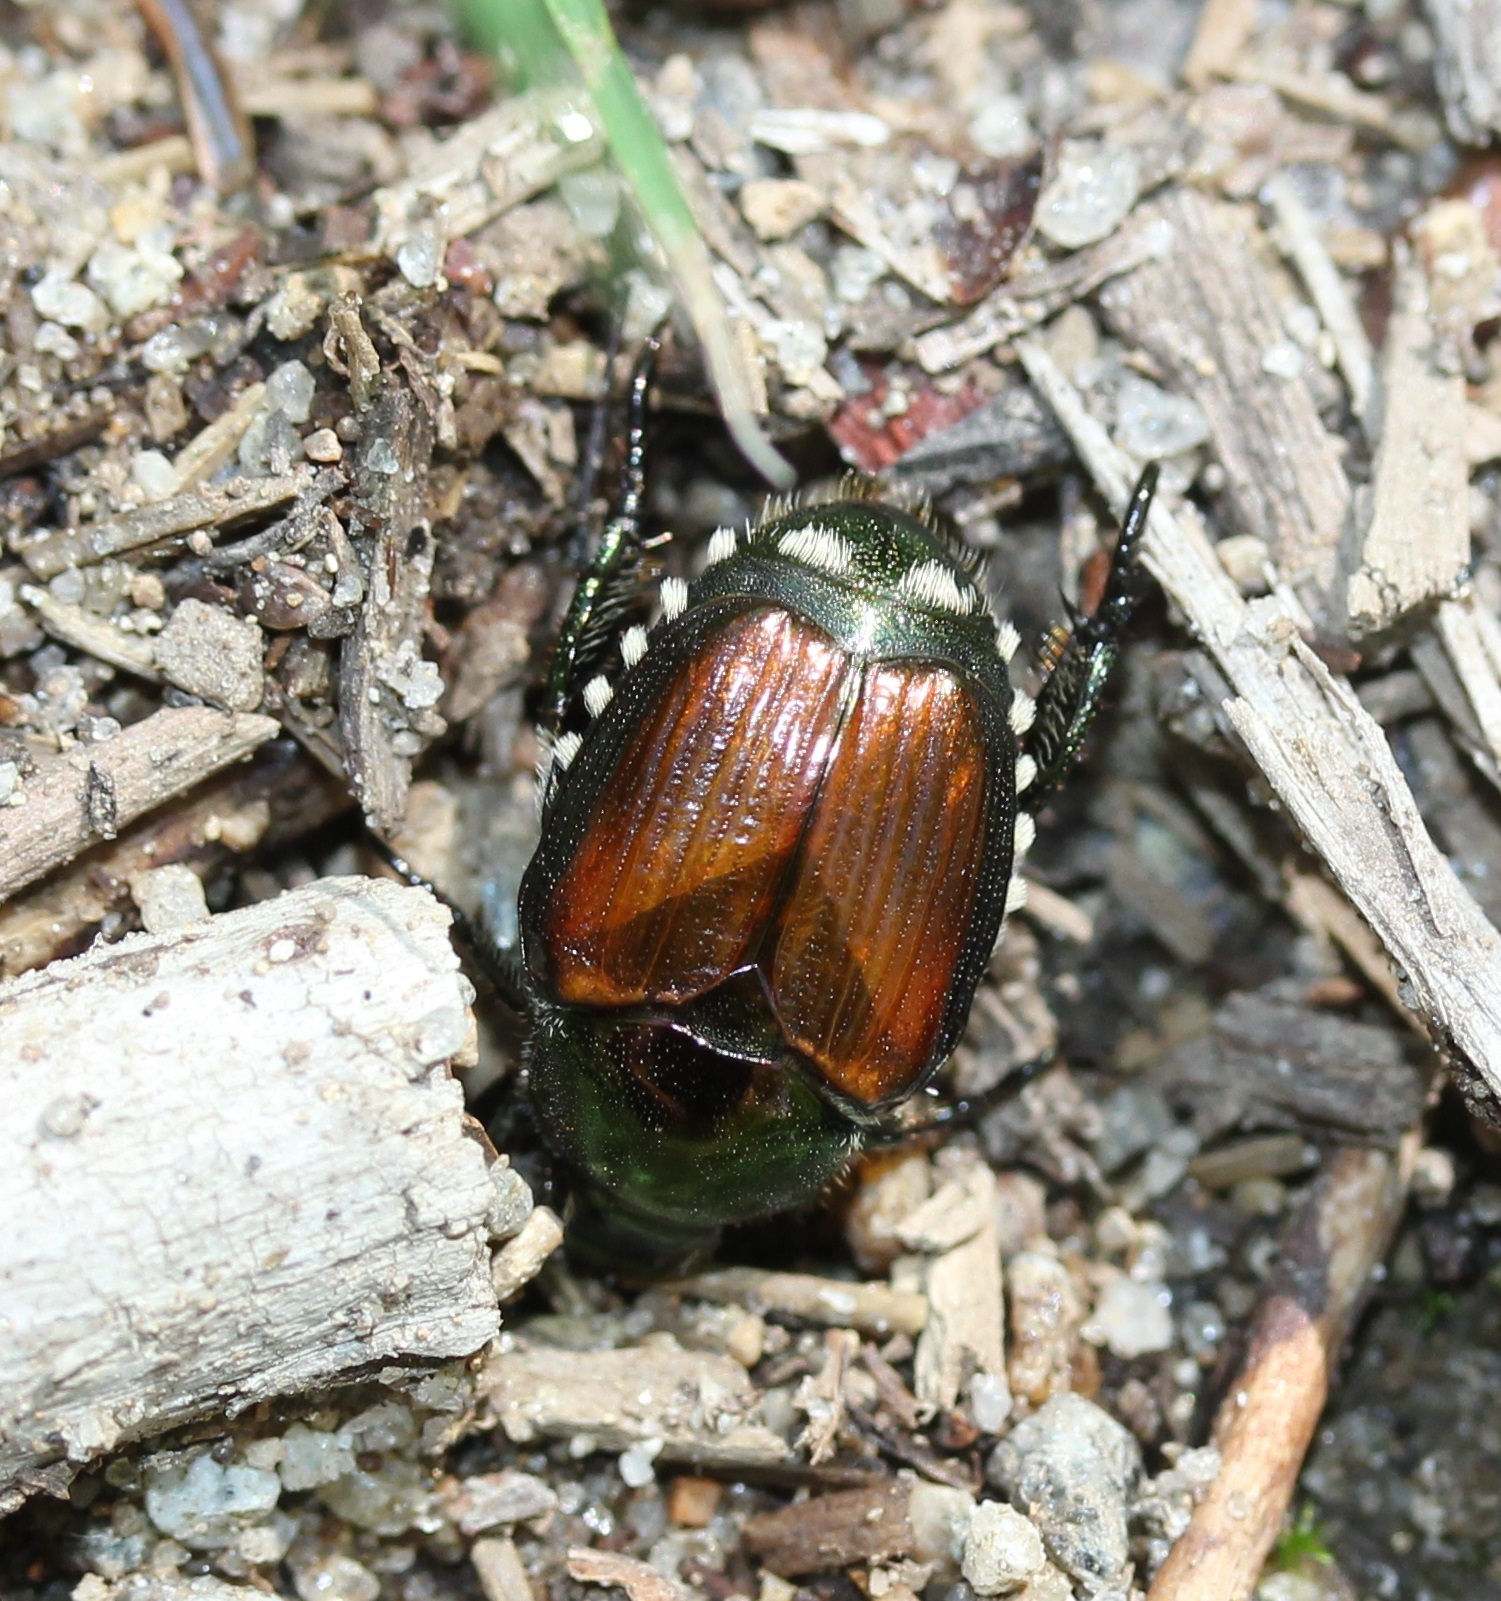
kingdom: Animalia
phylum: Arthropoda
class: Insecta
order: Coleoptera
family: Scarabaeidae
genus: Popillia
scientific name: Popillia japonica
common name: Japanese beetle
